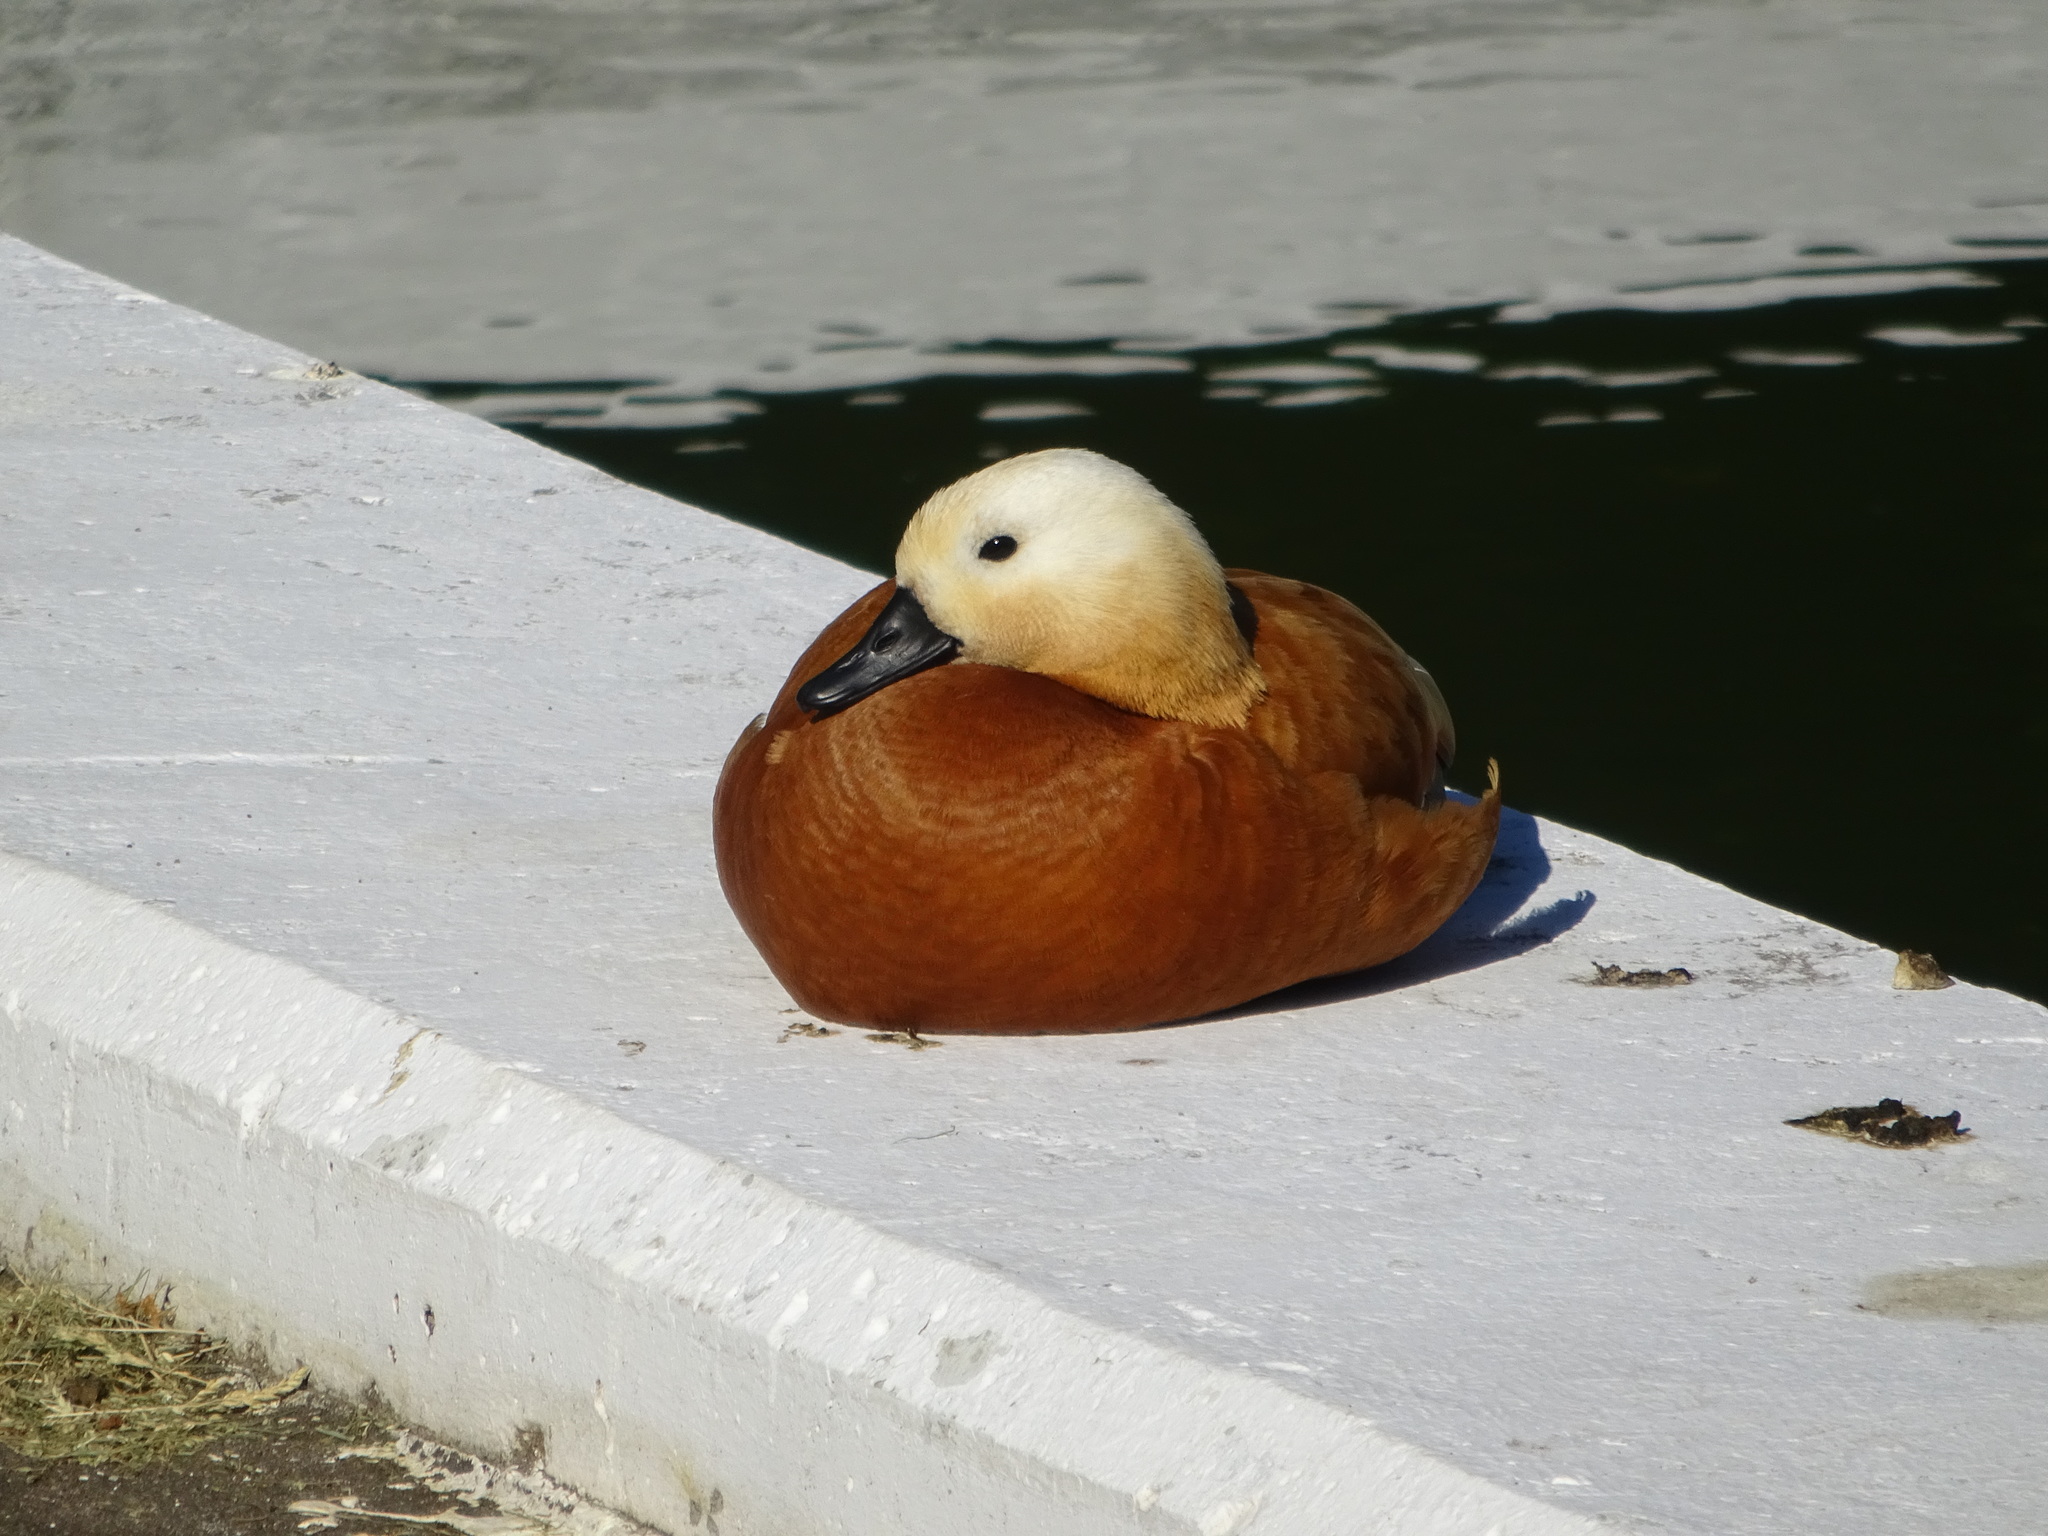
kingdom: Animalia
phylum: Chordata
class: Aves
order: Anseriformes
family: Anatidae
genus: Tadorna
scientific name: Tadorna ferruginea
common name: Ruddy shelduck
